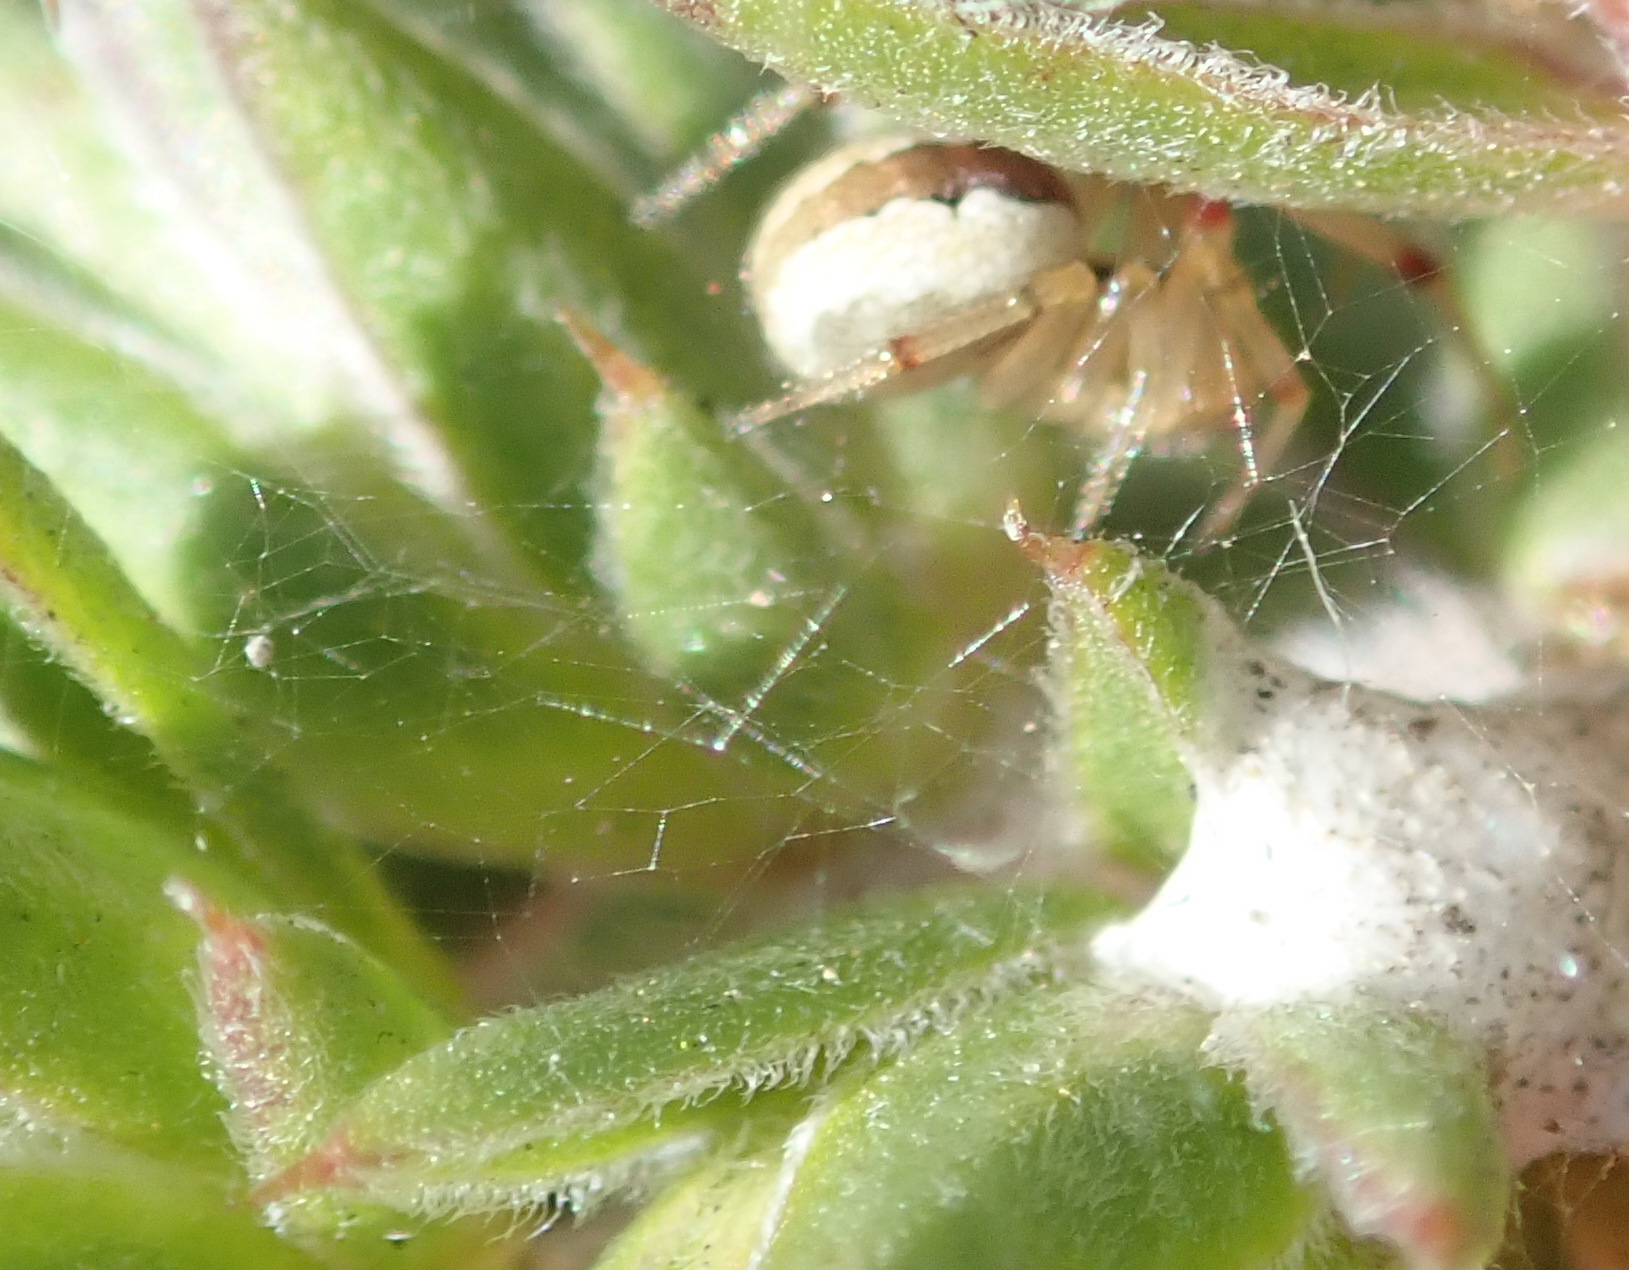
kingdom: Animalia
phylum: Arthropoda
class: Arachnida
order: Araneae
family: Theridiidae
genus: Anelosimus
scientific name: Anelosimus nelsoni
